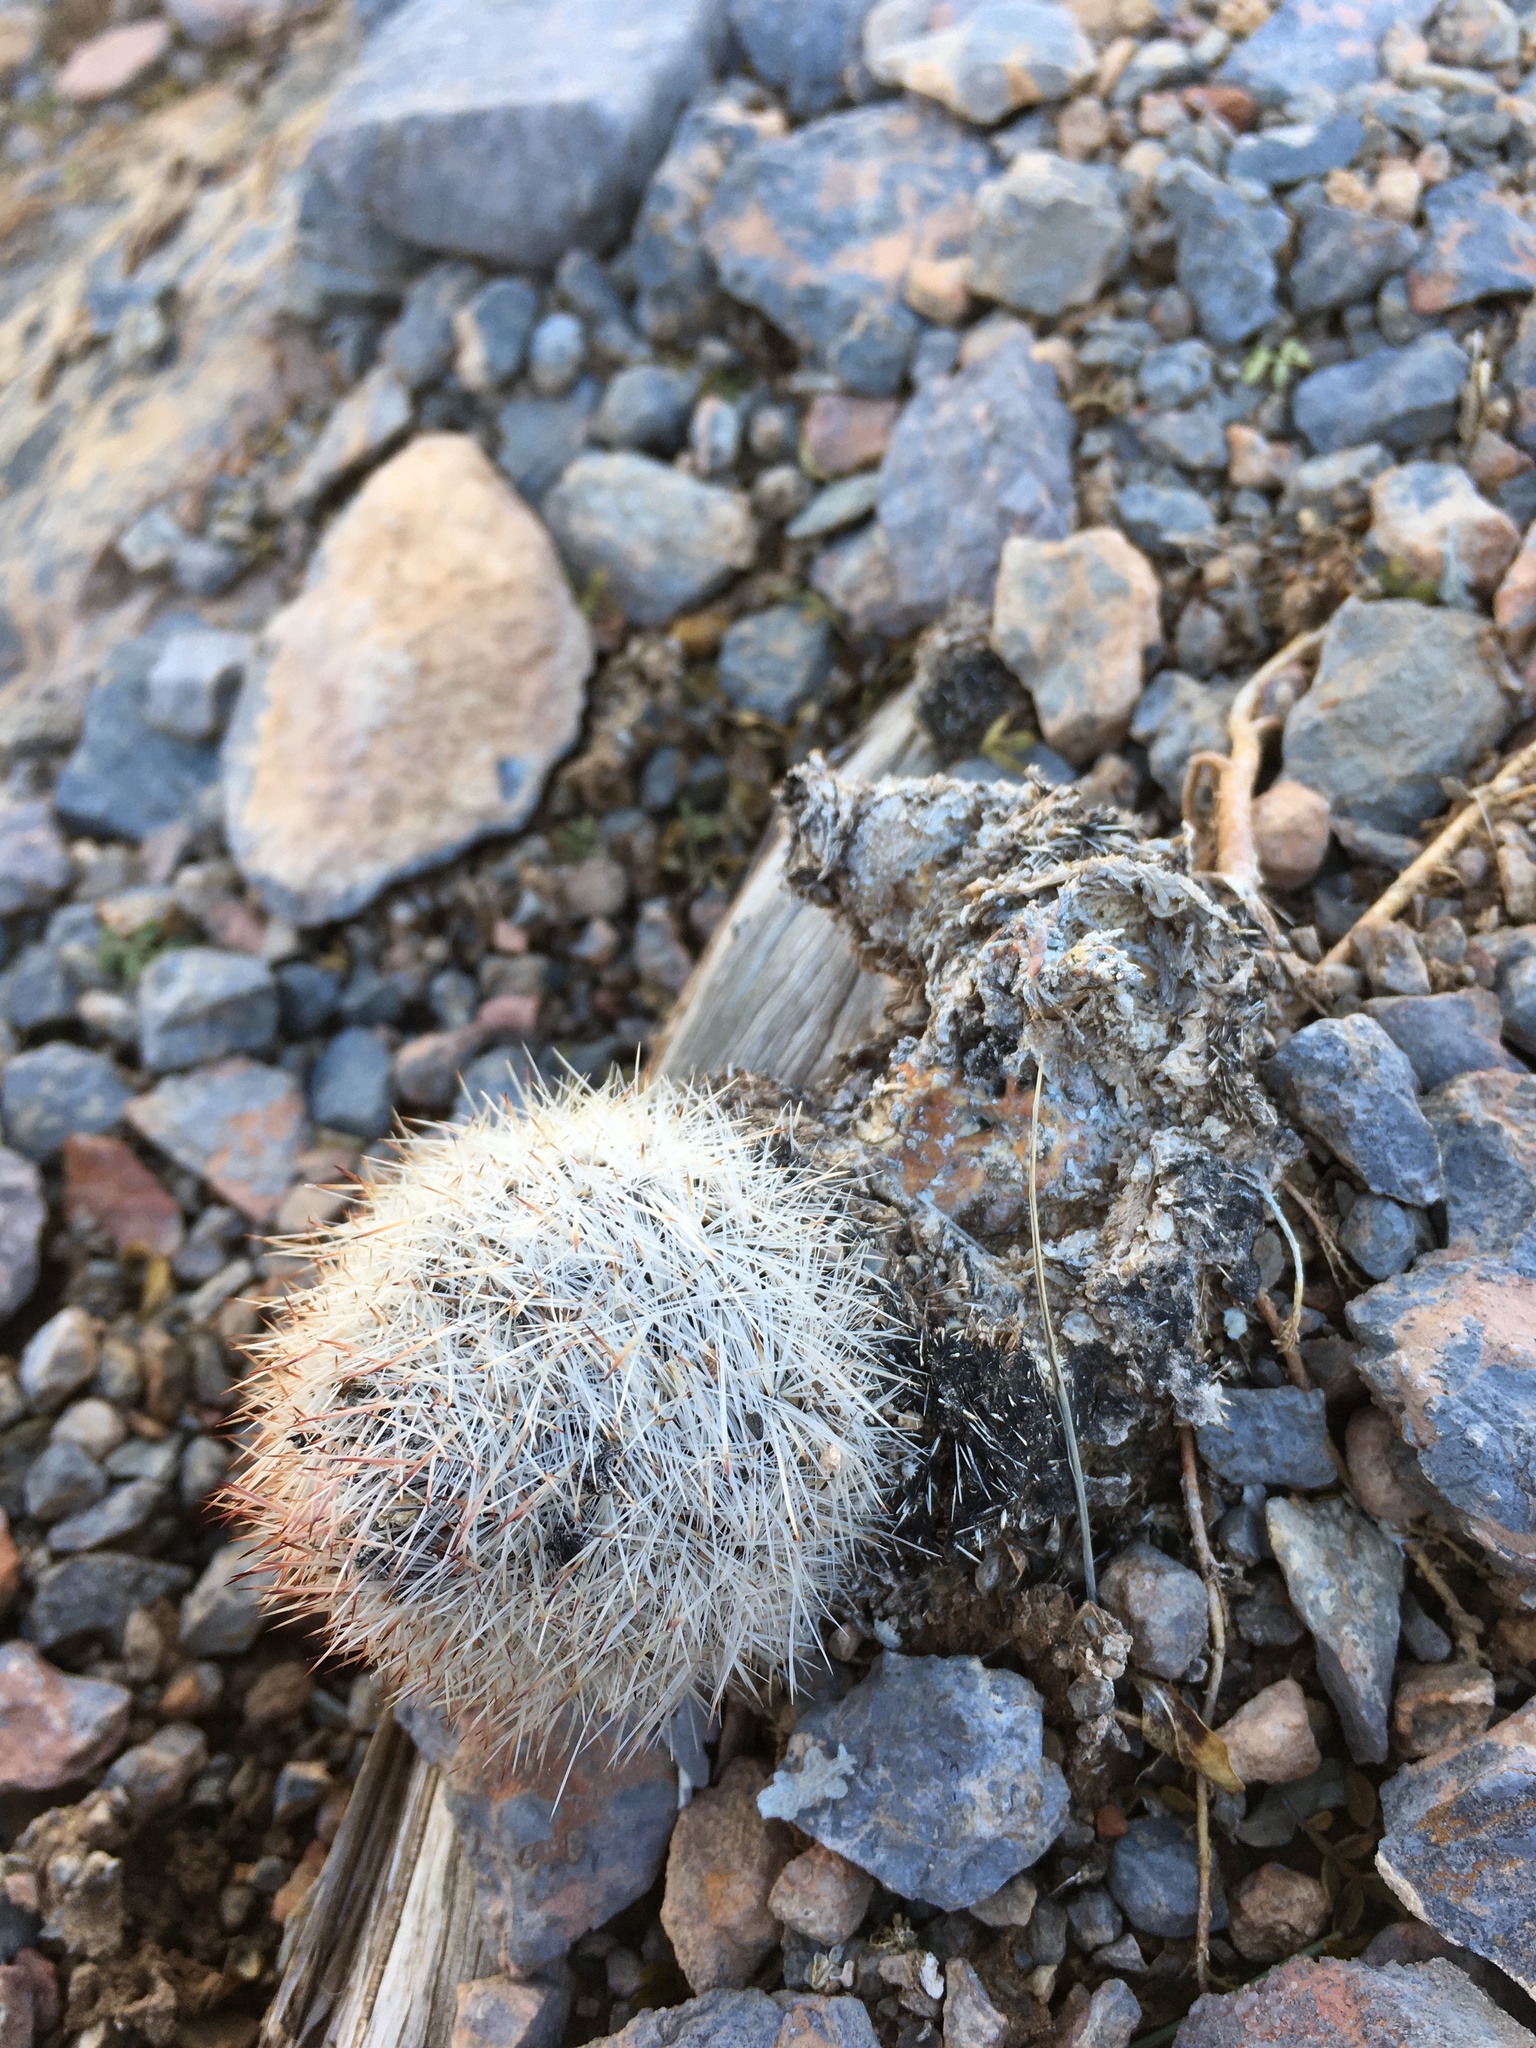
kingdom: Plantae
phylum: Tracheophyta
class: Magnoliopsida
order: Caryophyllales
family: Cactaceae
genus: Pelecyphora
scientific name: Pelecyphora sneedii
